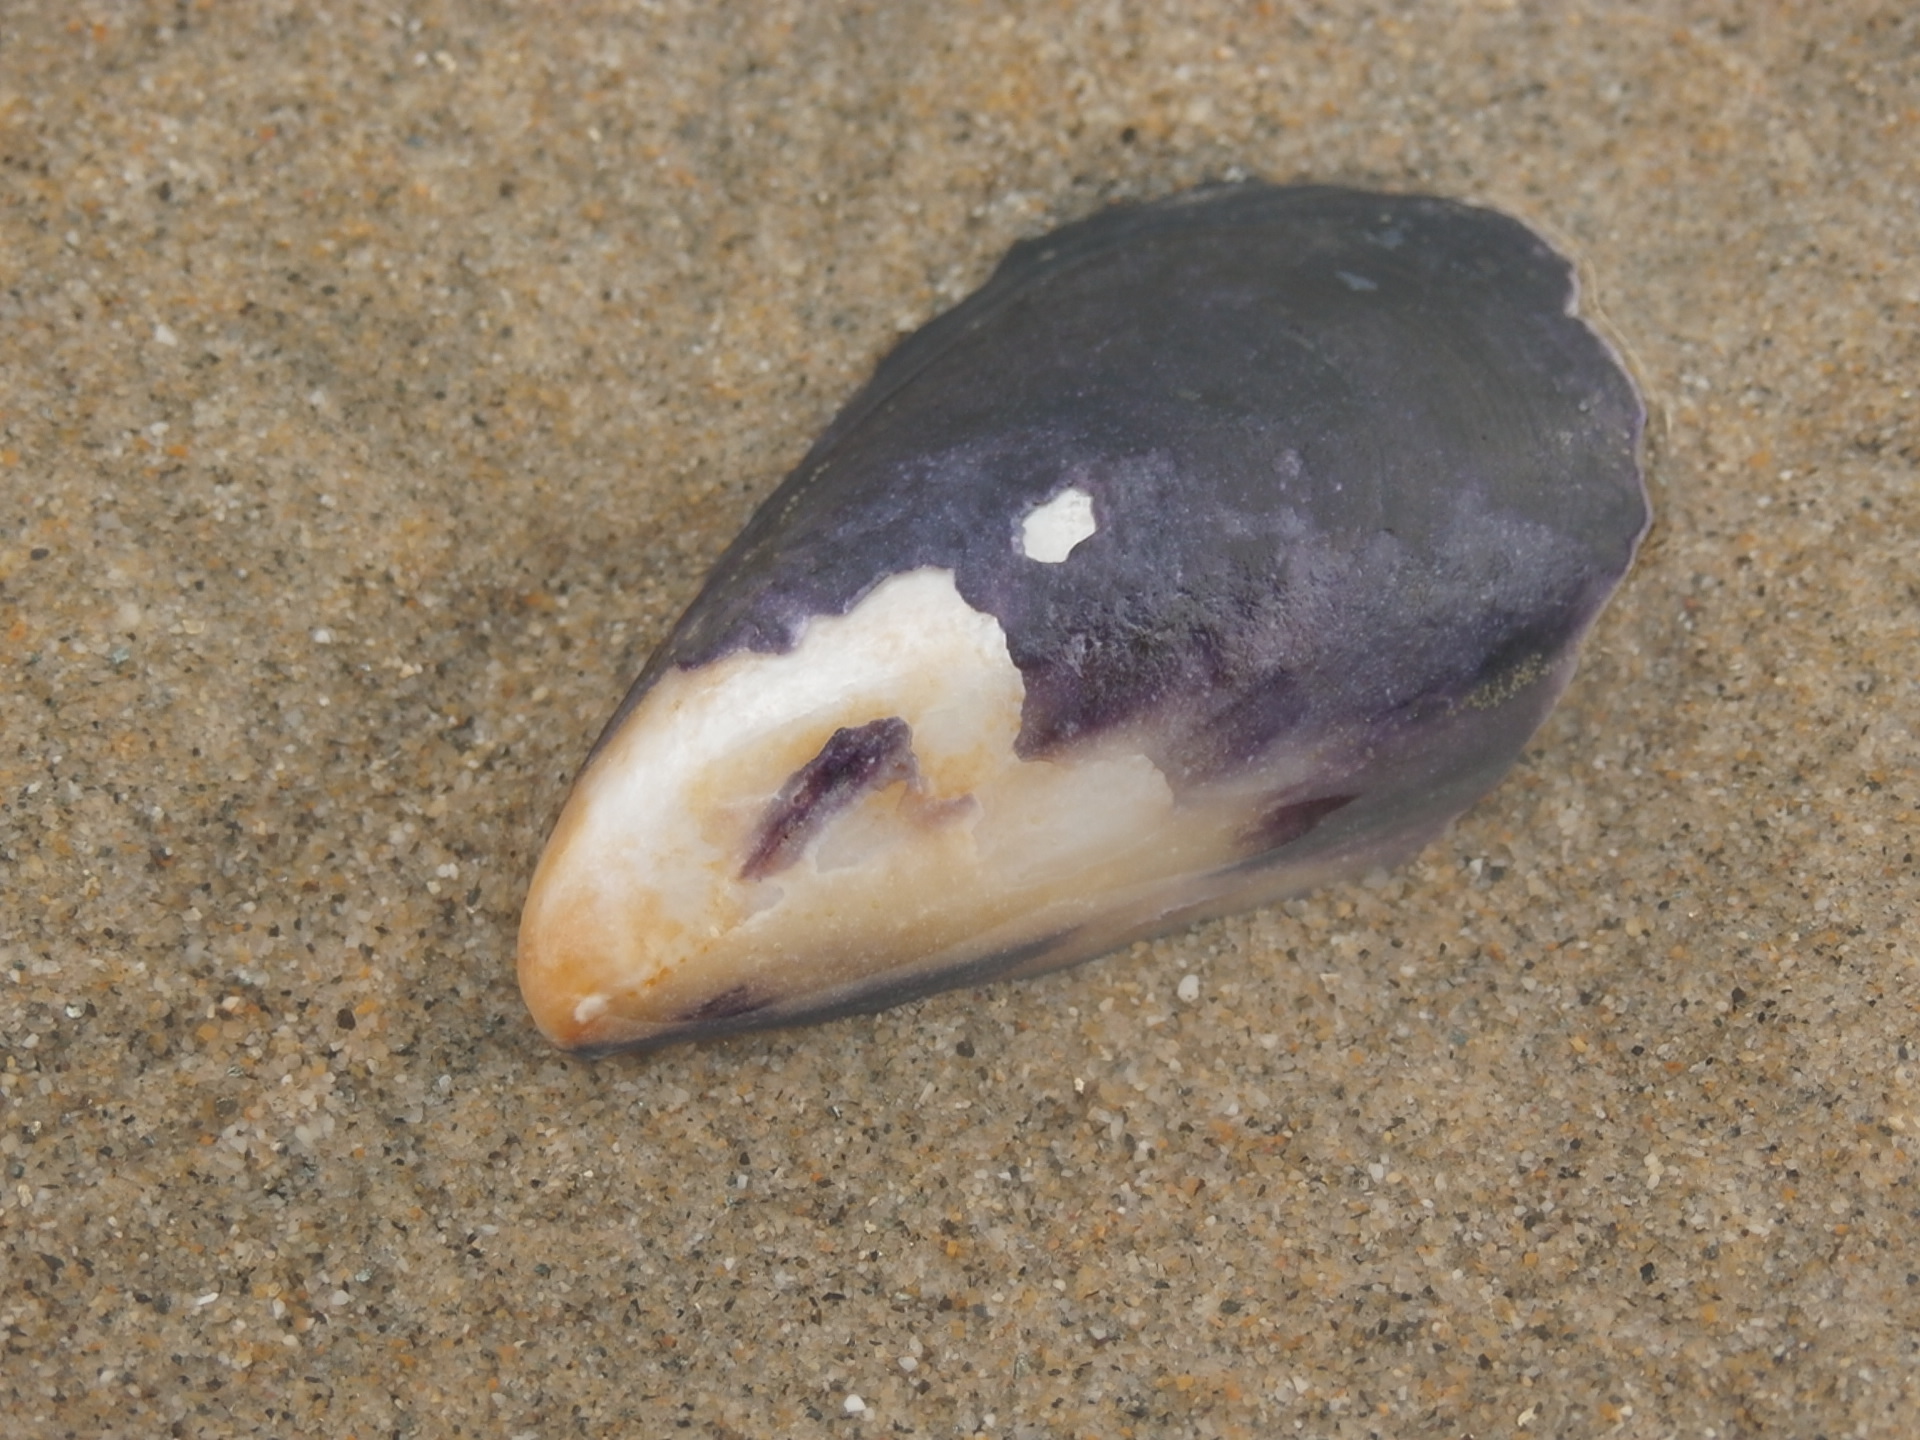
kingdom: Animalia
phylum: Mollusca
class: Bivalvia
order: Mytilida
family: Mytilidae
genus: Mytilus
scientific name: Mytilus californianus
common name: California mussel
